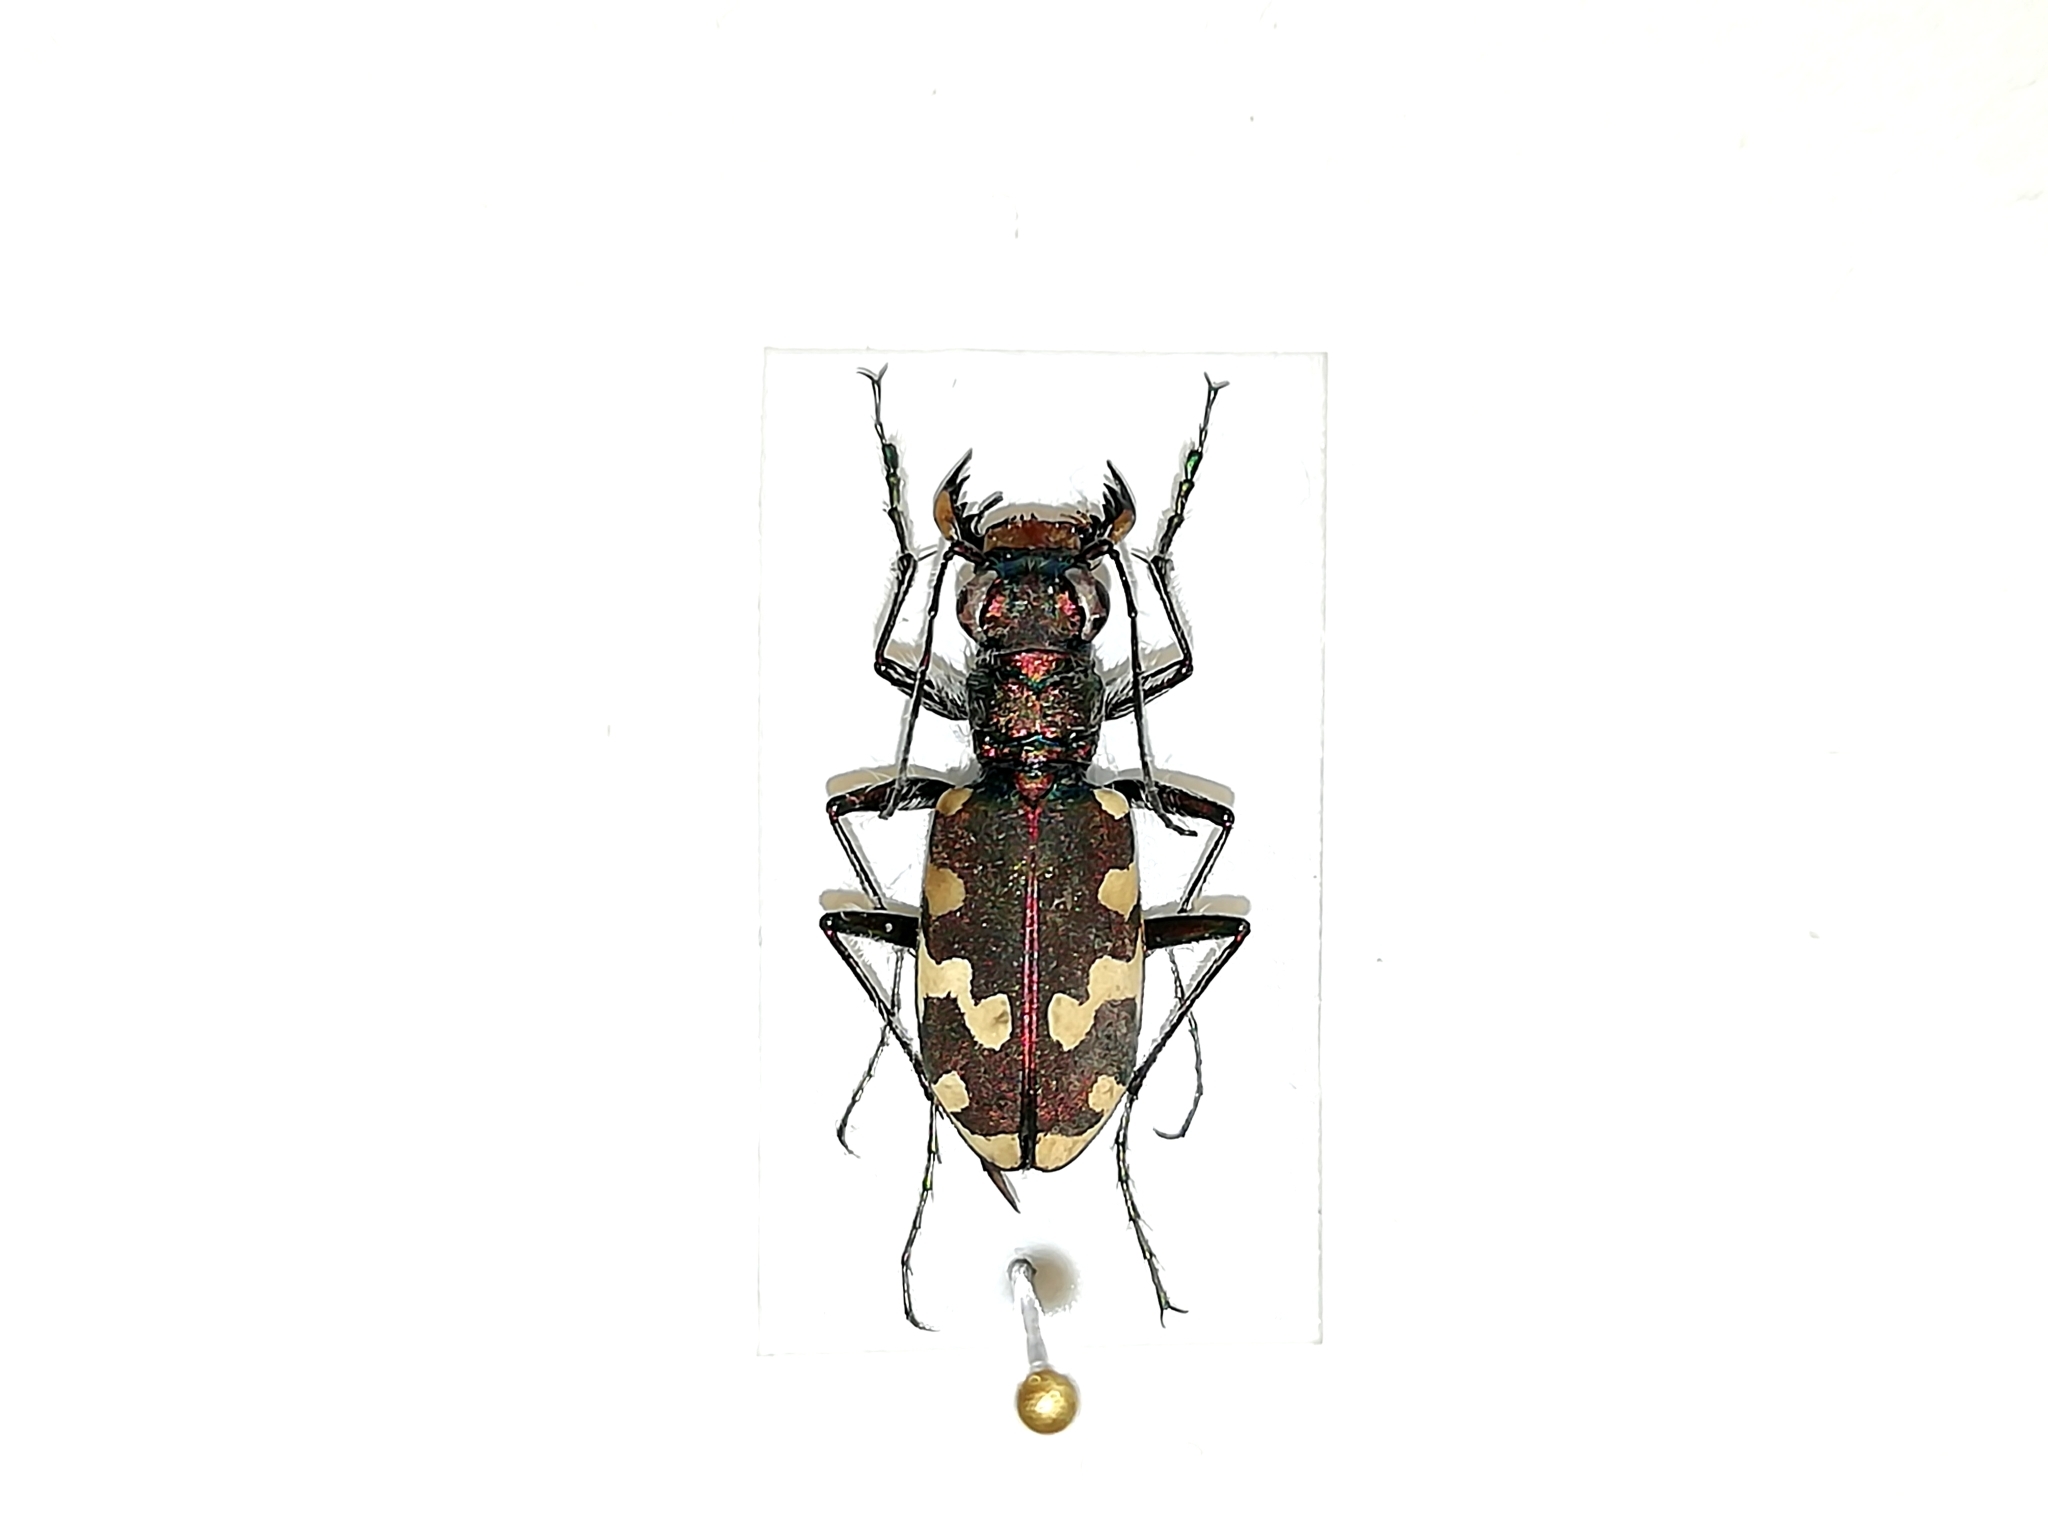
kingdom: Animalia
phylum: Arthropoda
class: Insecta
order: Coleoptera
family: Carabidae
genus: Cicindela
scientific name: Cicindela hybrida
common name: Northern dune tiger beetle
